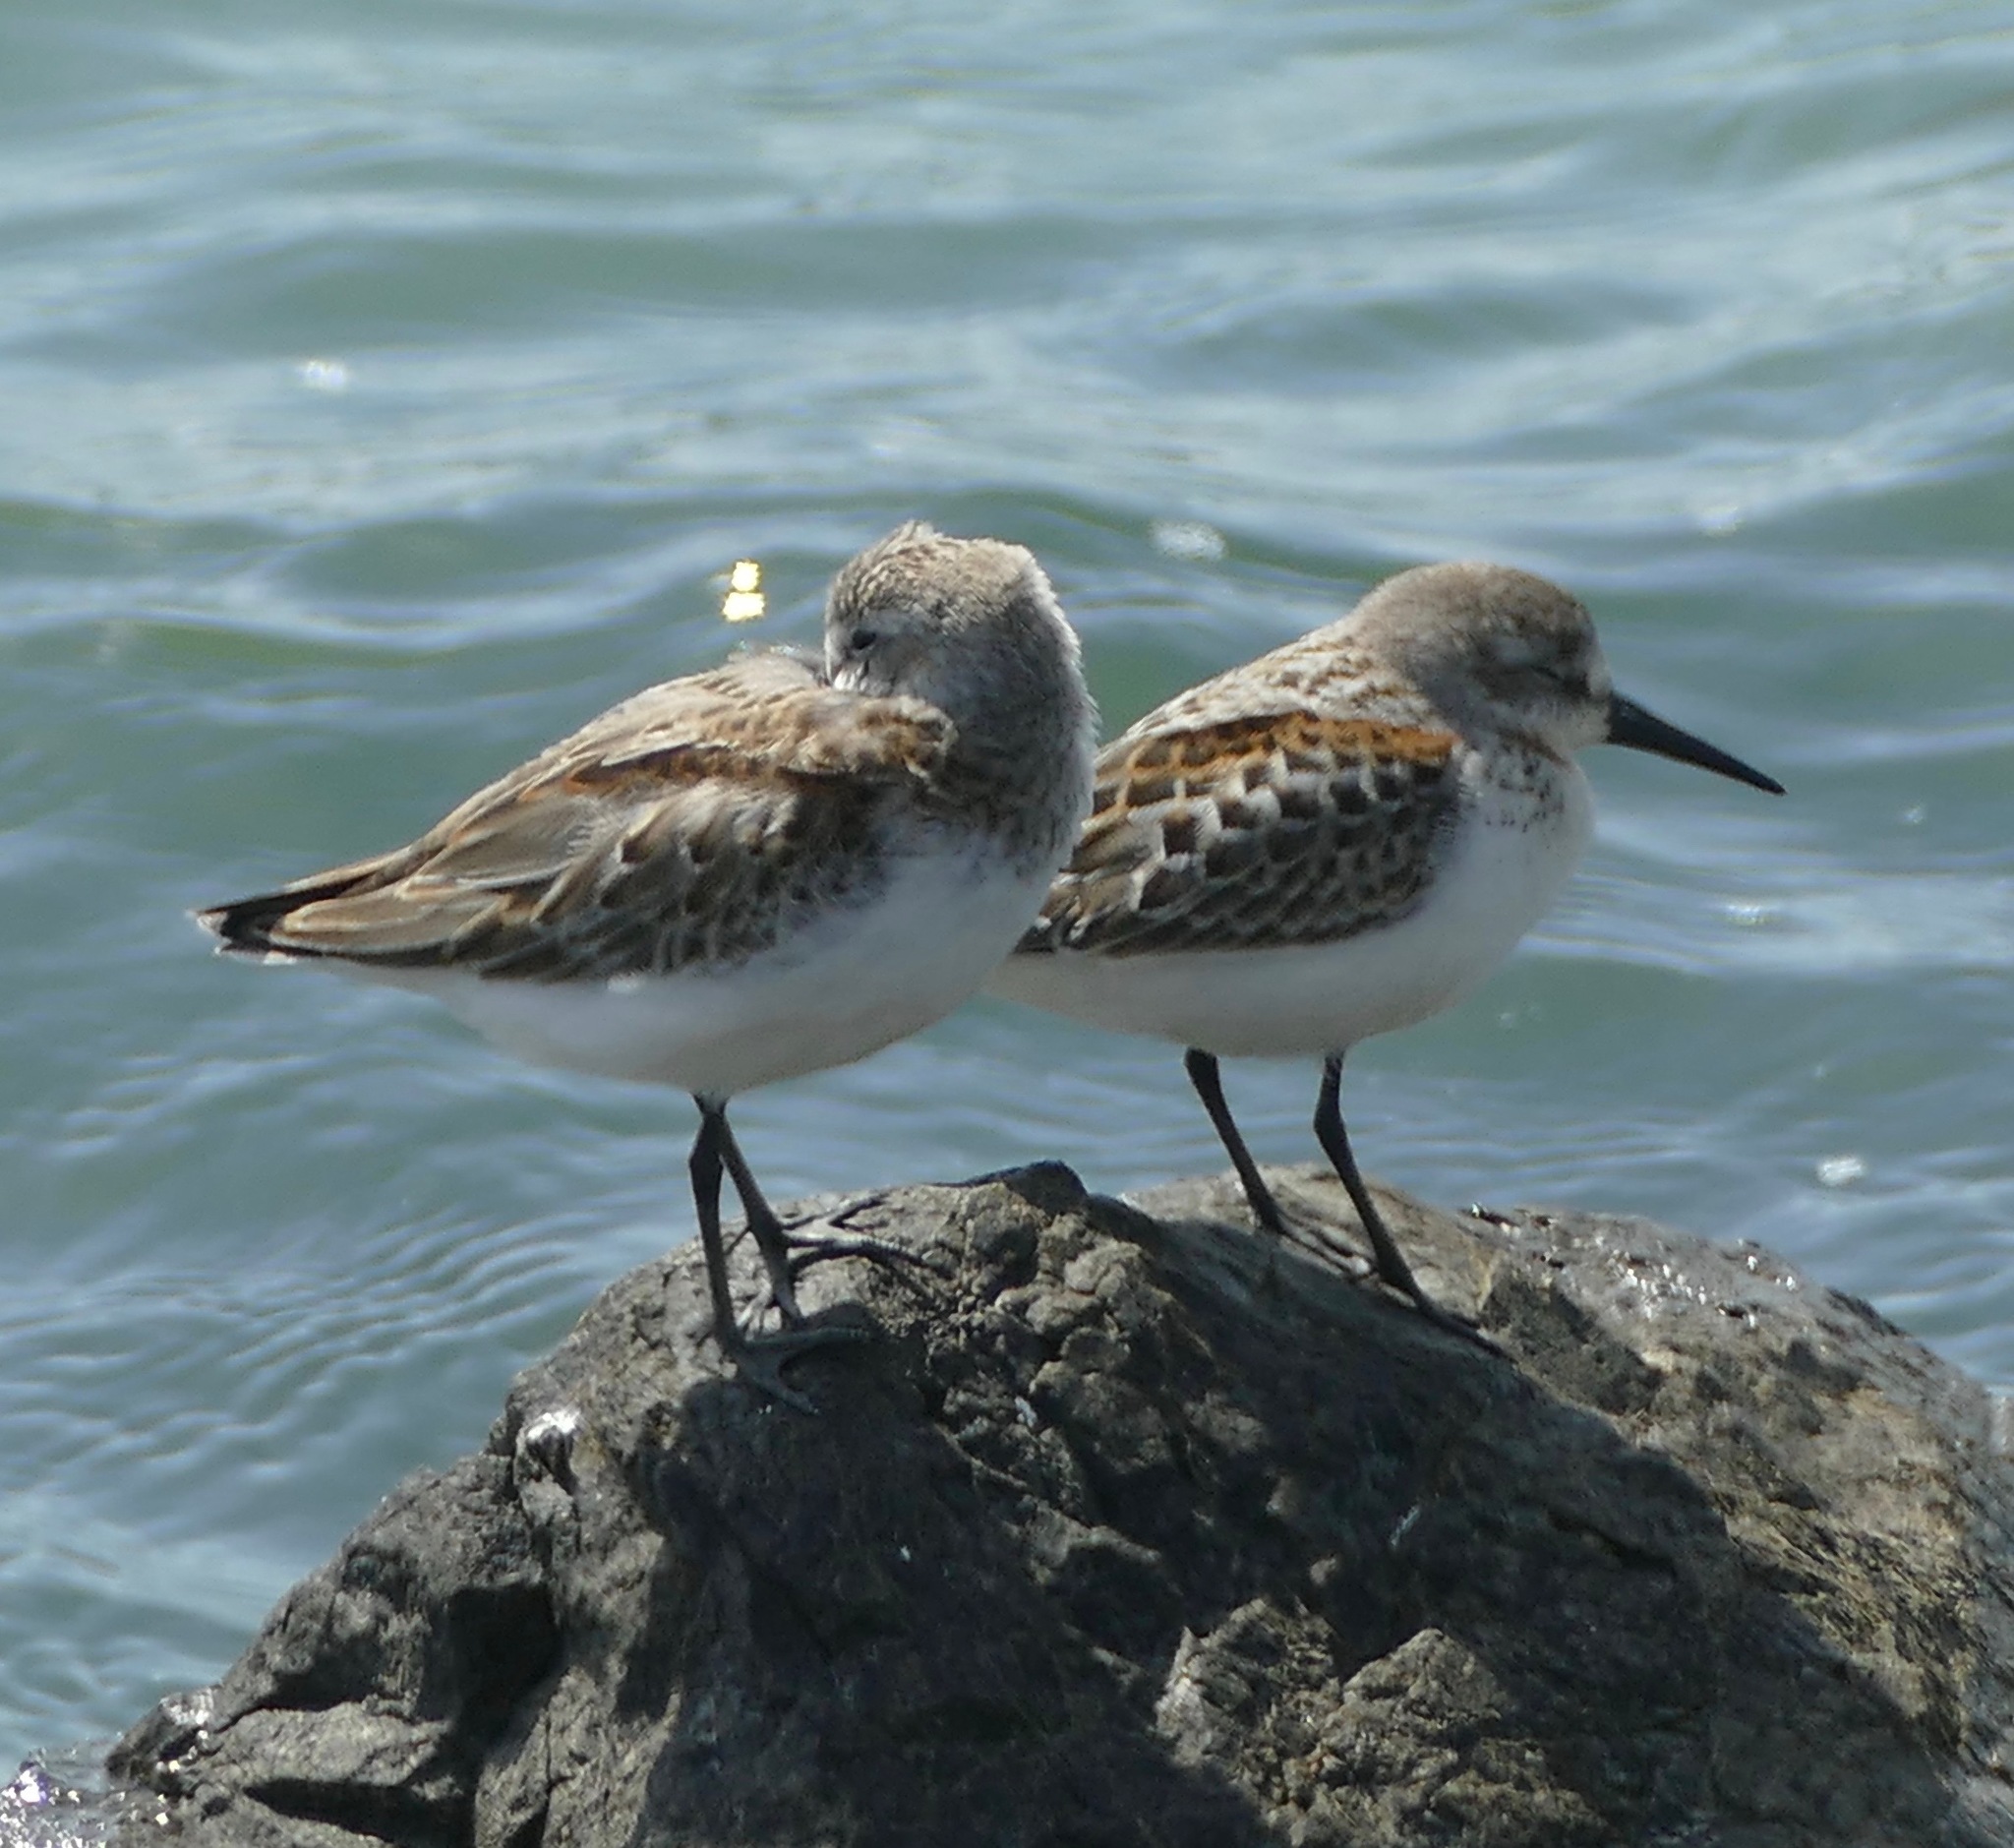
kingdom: Animalia
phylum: Chordata
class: Aves
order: Charadriiformes
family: Scolopacidae
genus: Calidris
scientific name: Calidris mauri
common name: Western sandpiper
